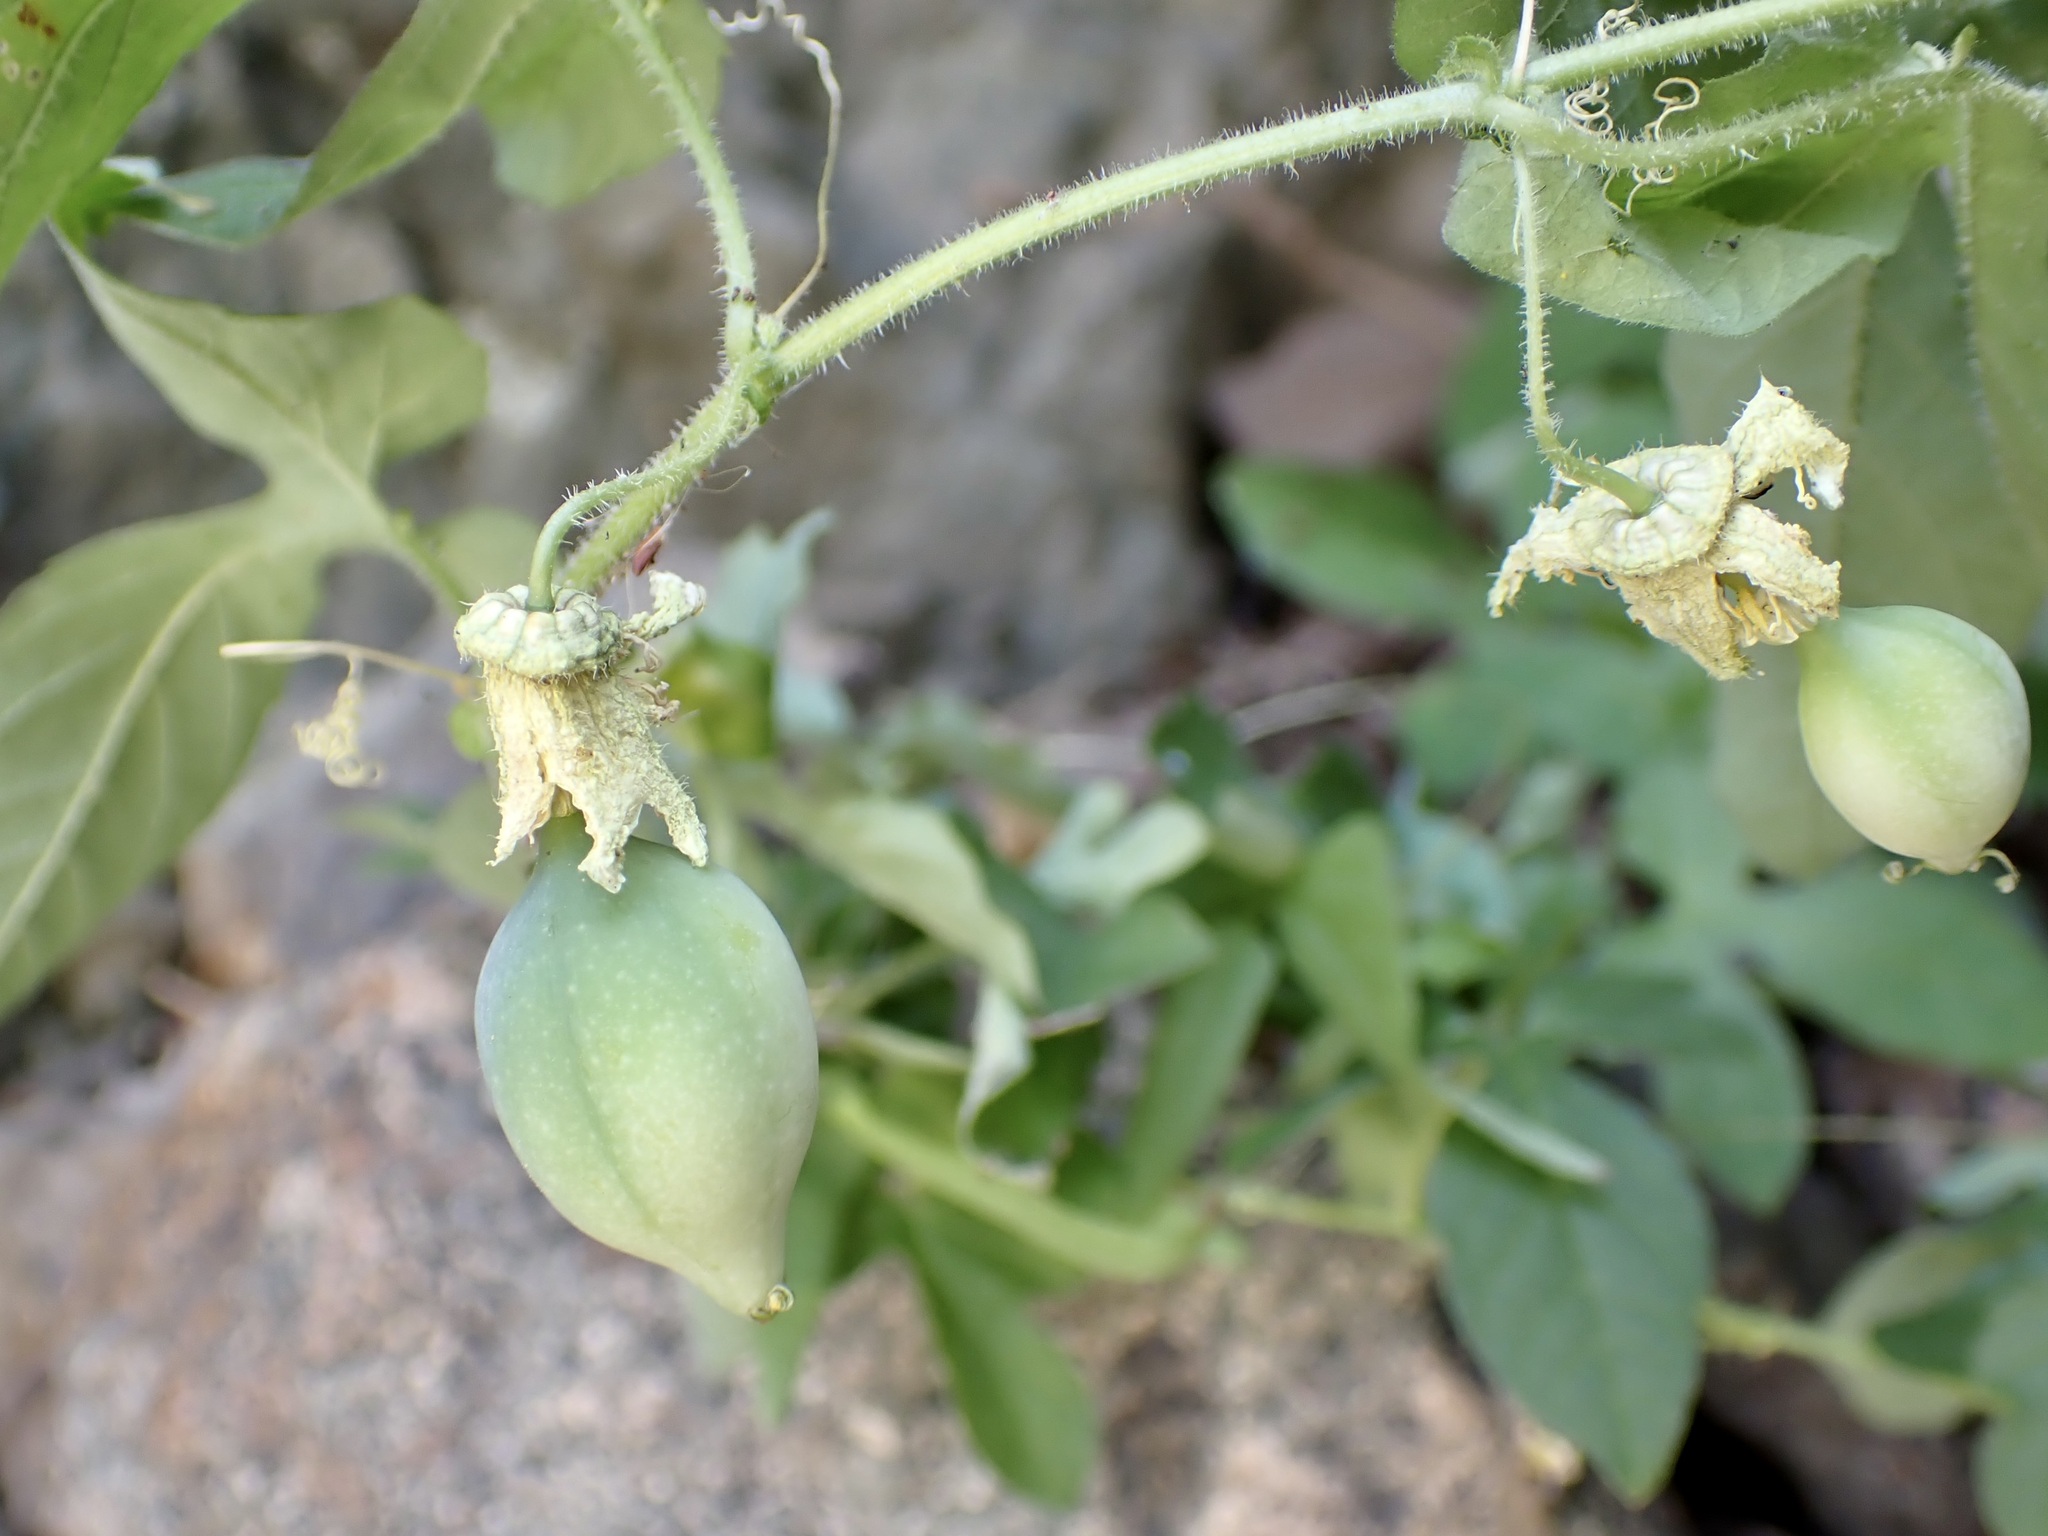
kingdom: Plantae
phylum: Tracheophyta
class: Magnoliopsida
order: Malpighiales
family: Passifloraceae
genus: Passiflora
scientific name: Passiflora bryonioides
